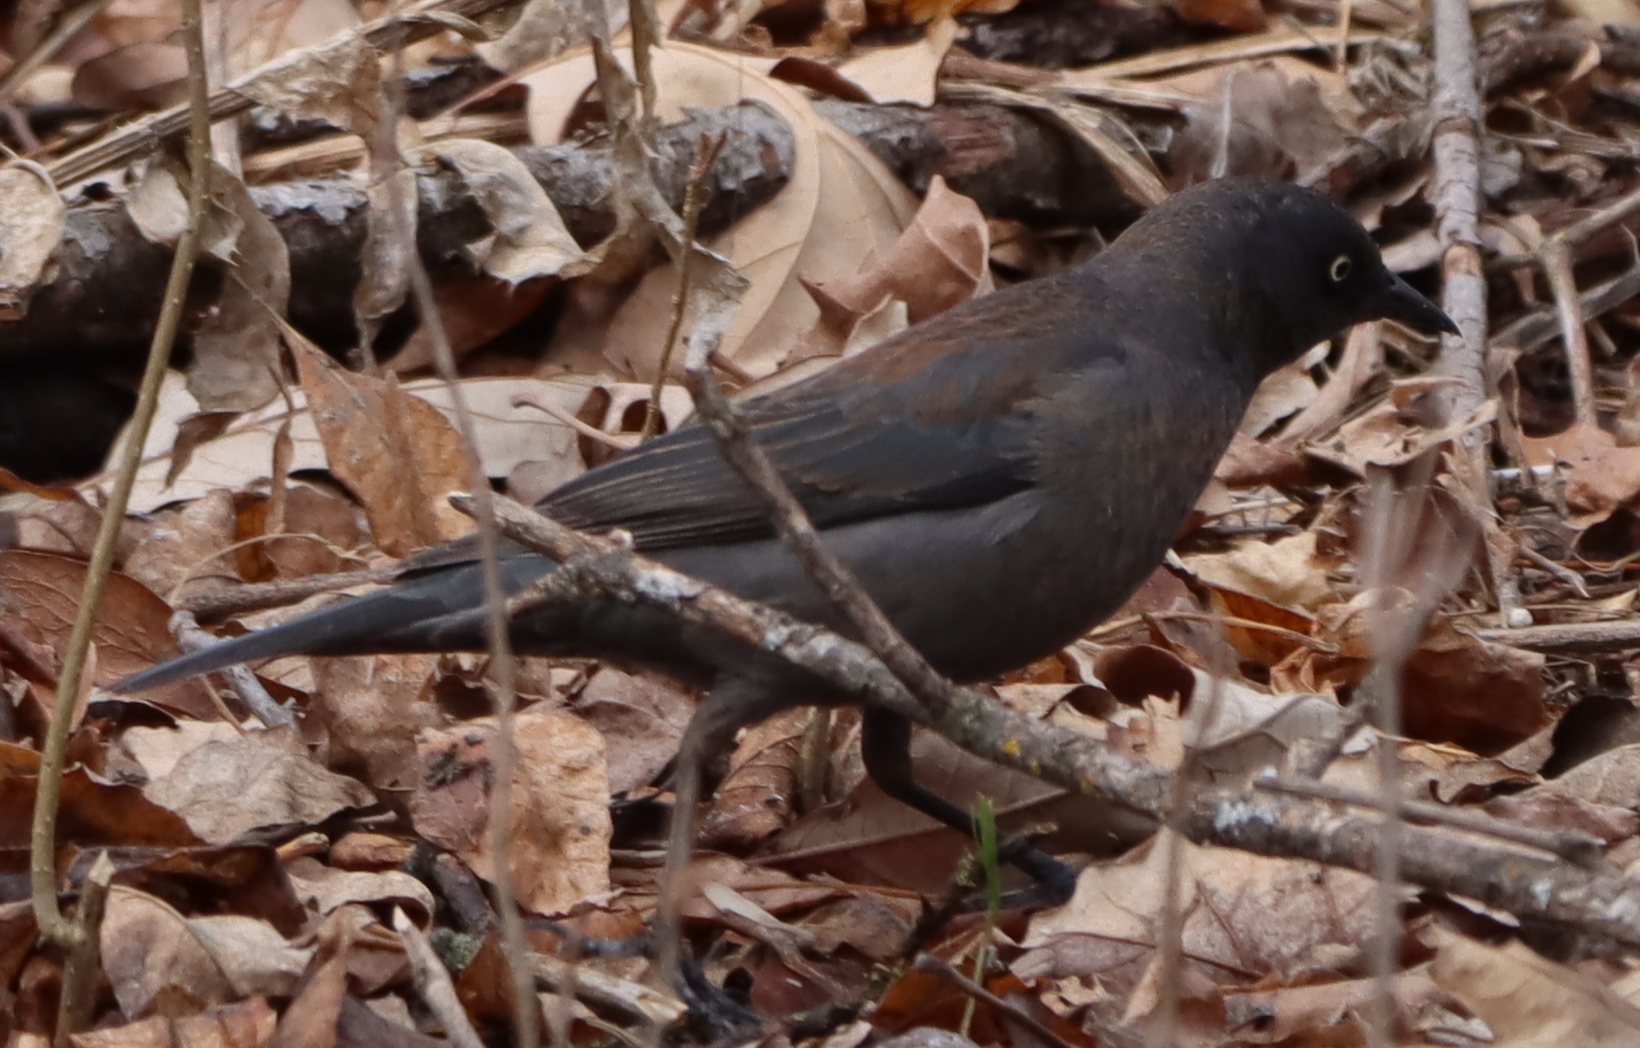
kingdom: Animalia
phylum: Chordata
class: Aves
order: Passeriformes
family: Icteridae
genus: Euphagus
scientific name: Euphagus carolinus
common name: Rusty blackbird
